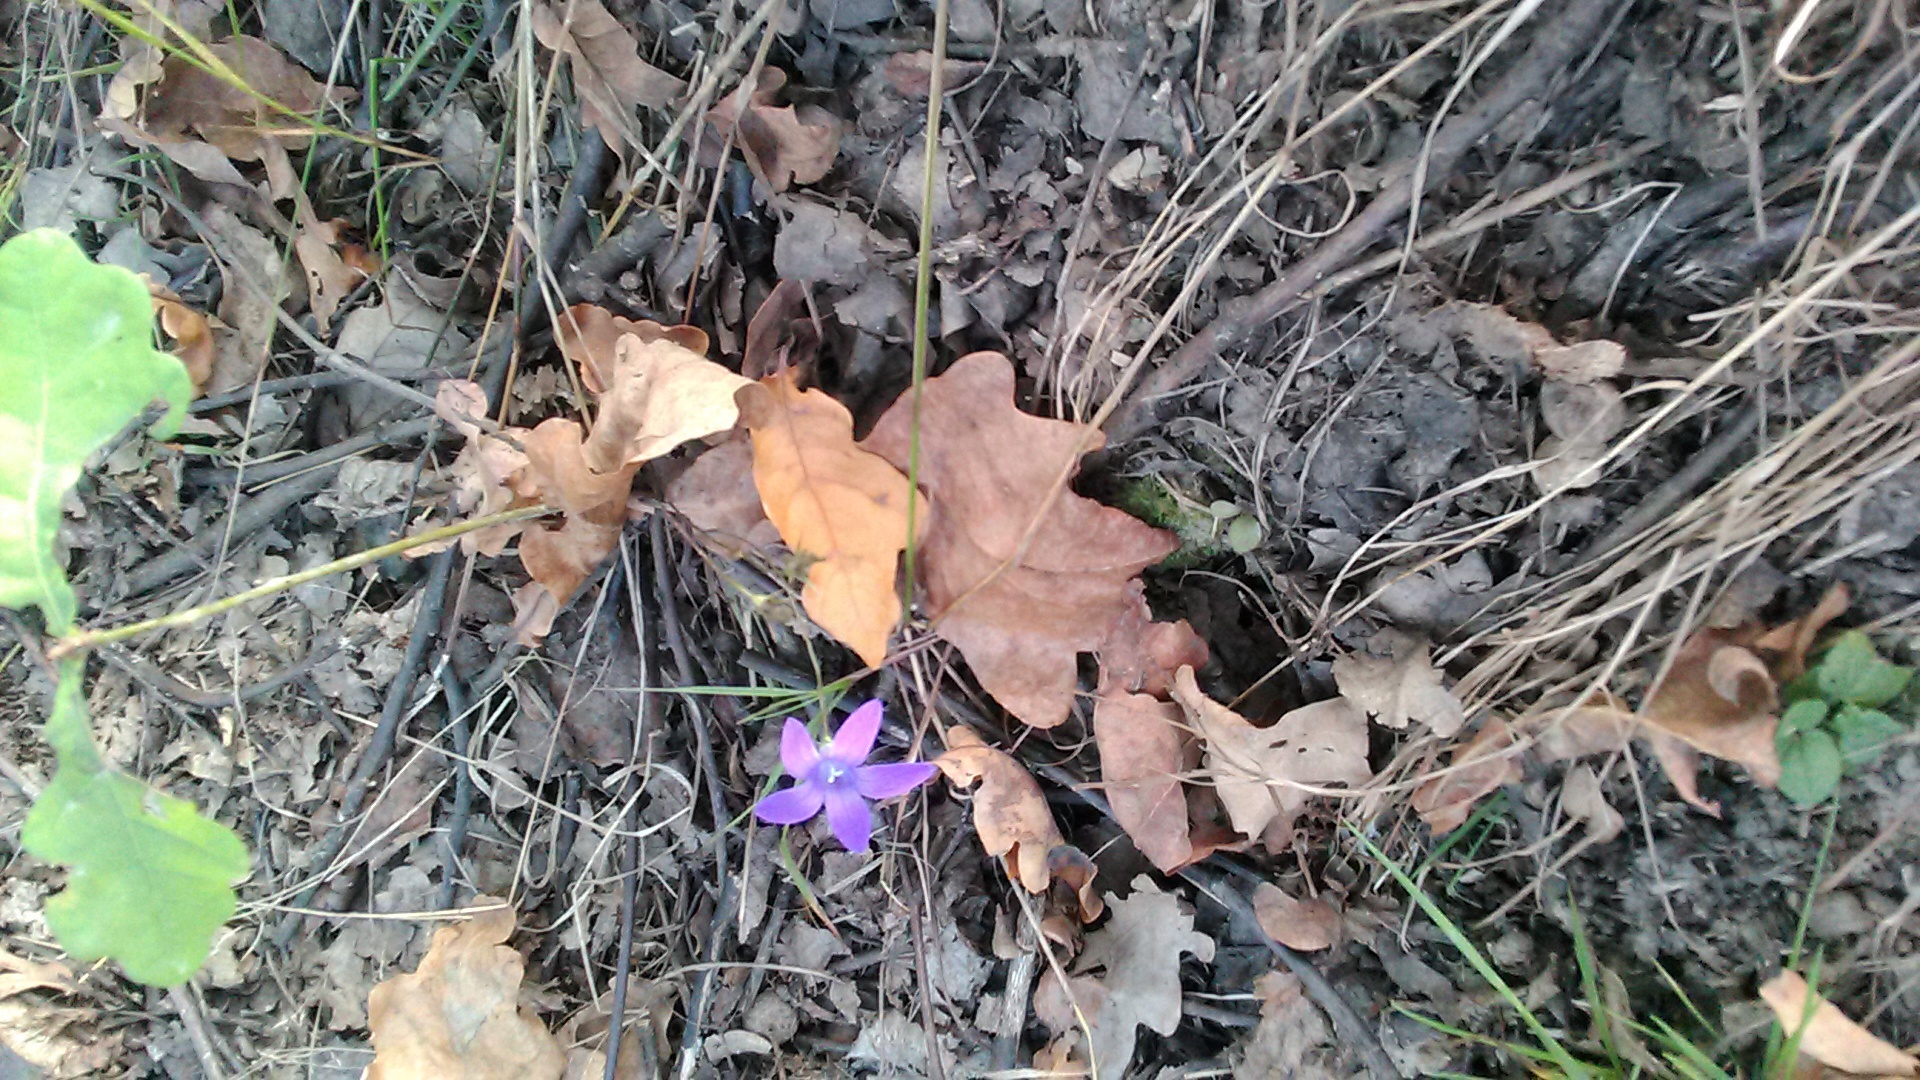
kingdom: Plantae
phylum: Tracheophyta
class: Magnoliopsida
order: Asterales
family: Campanulaceae
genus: Campanula
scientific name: Campanula patula
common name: Spreading bellflower
